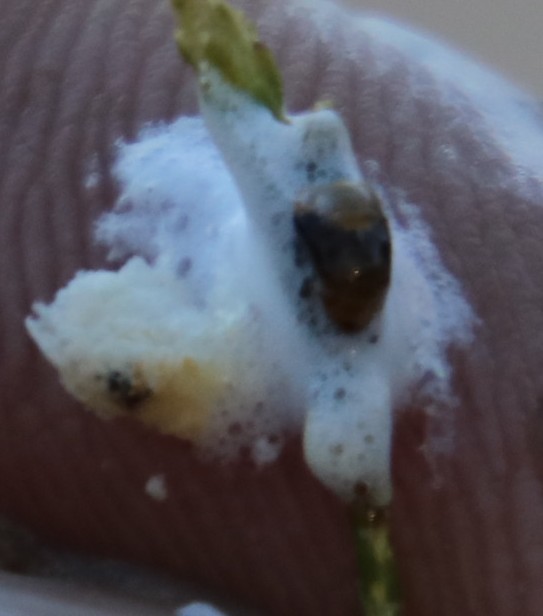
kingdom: Animalia
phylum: Arthropoda
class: Insecta
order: Hemiptera
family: Aphrophoridae
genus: Tremapterus
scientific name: Tremapterus
